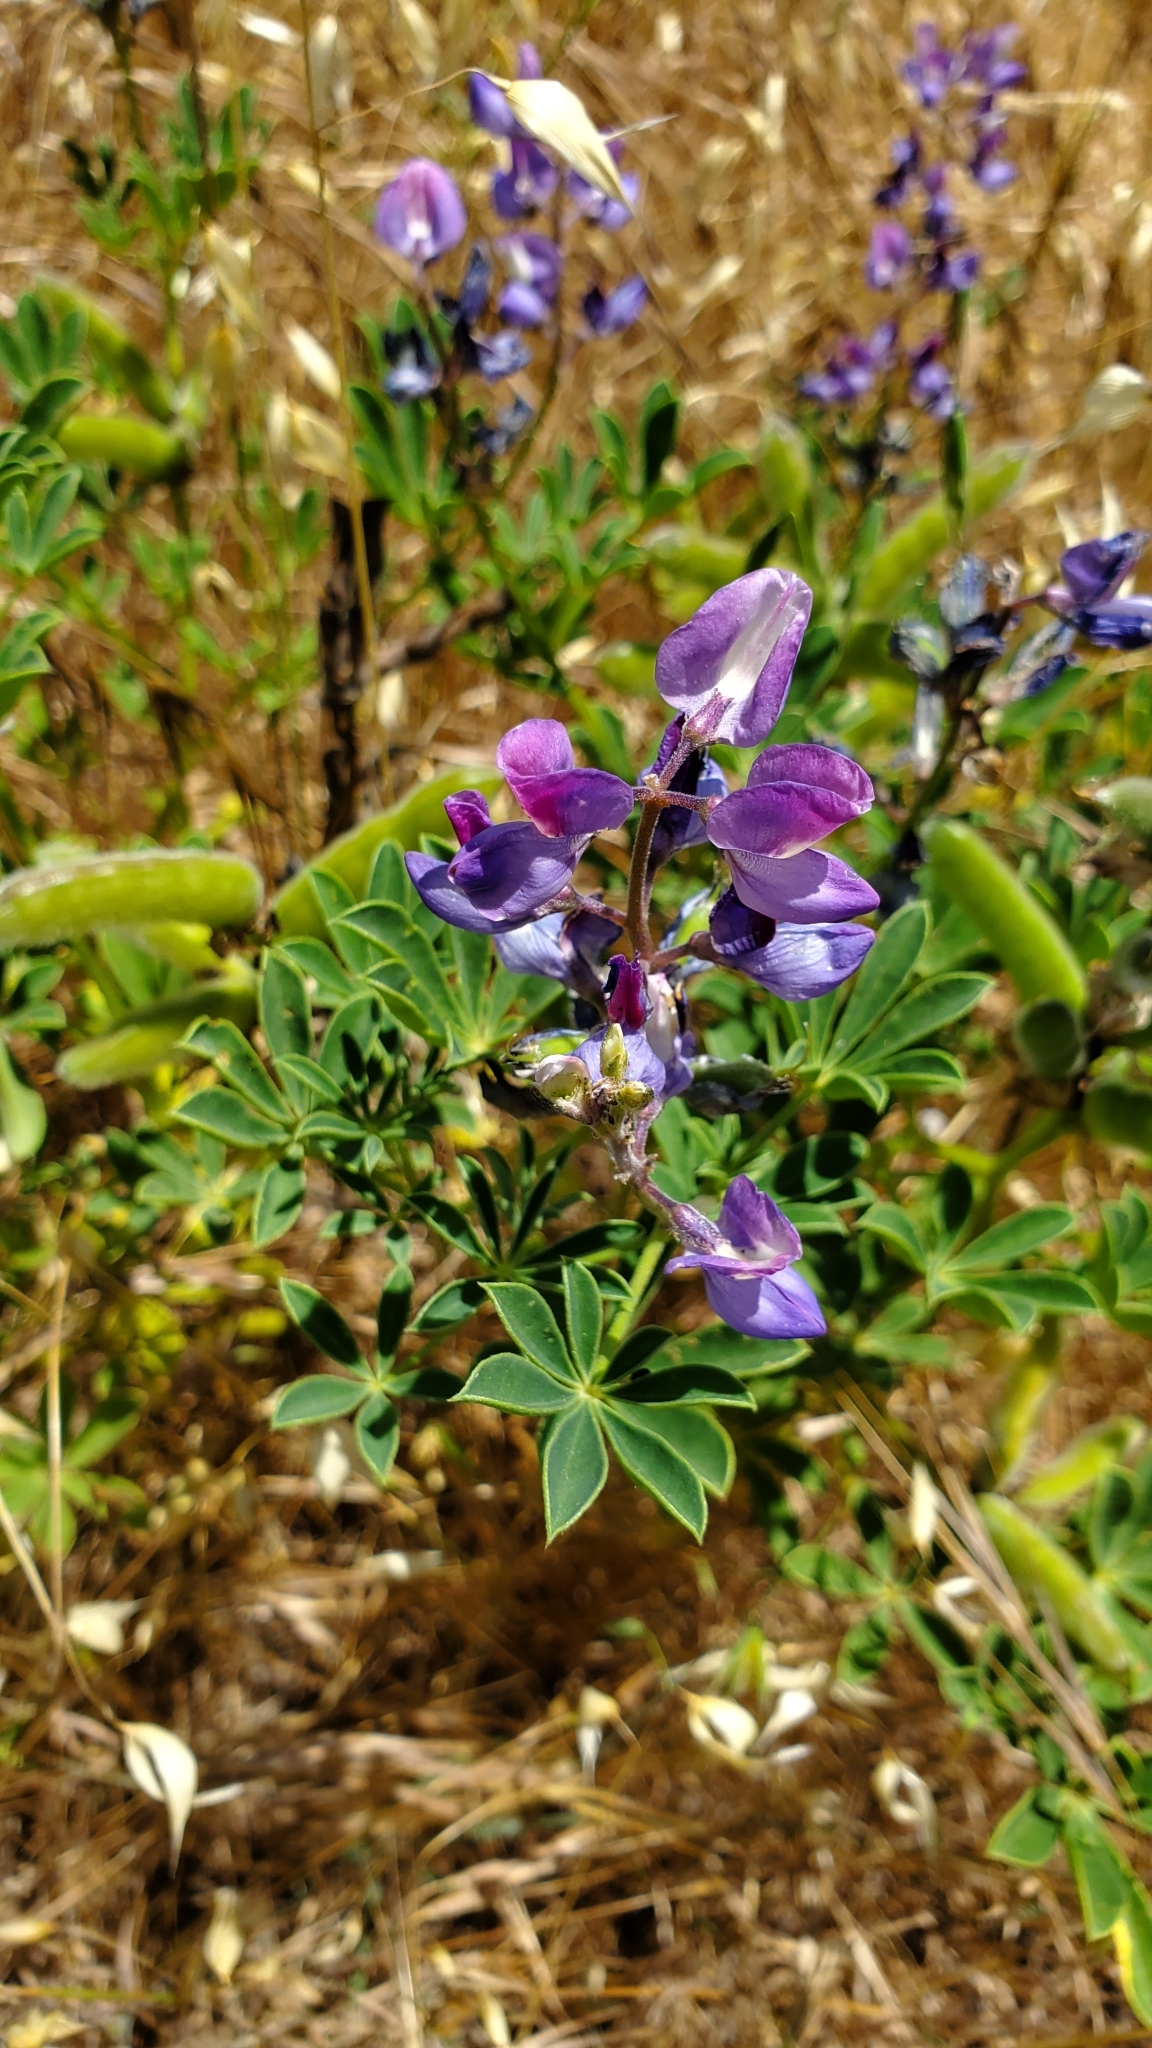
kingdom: Plantae
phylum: Tracheophyta
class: Magnoliopsida
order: Fabales
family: Fabaceae
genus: Lupinus
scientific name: Lupinus succulentus
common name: Arroyo lupine
